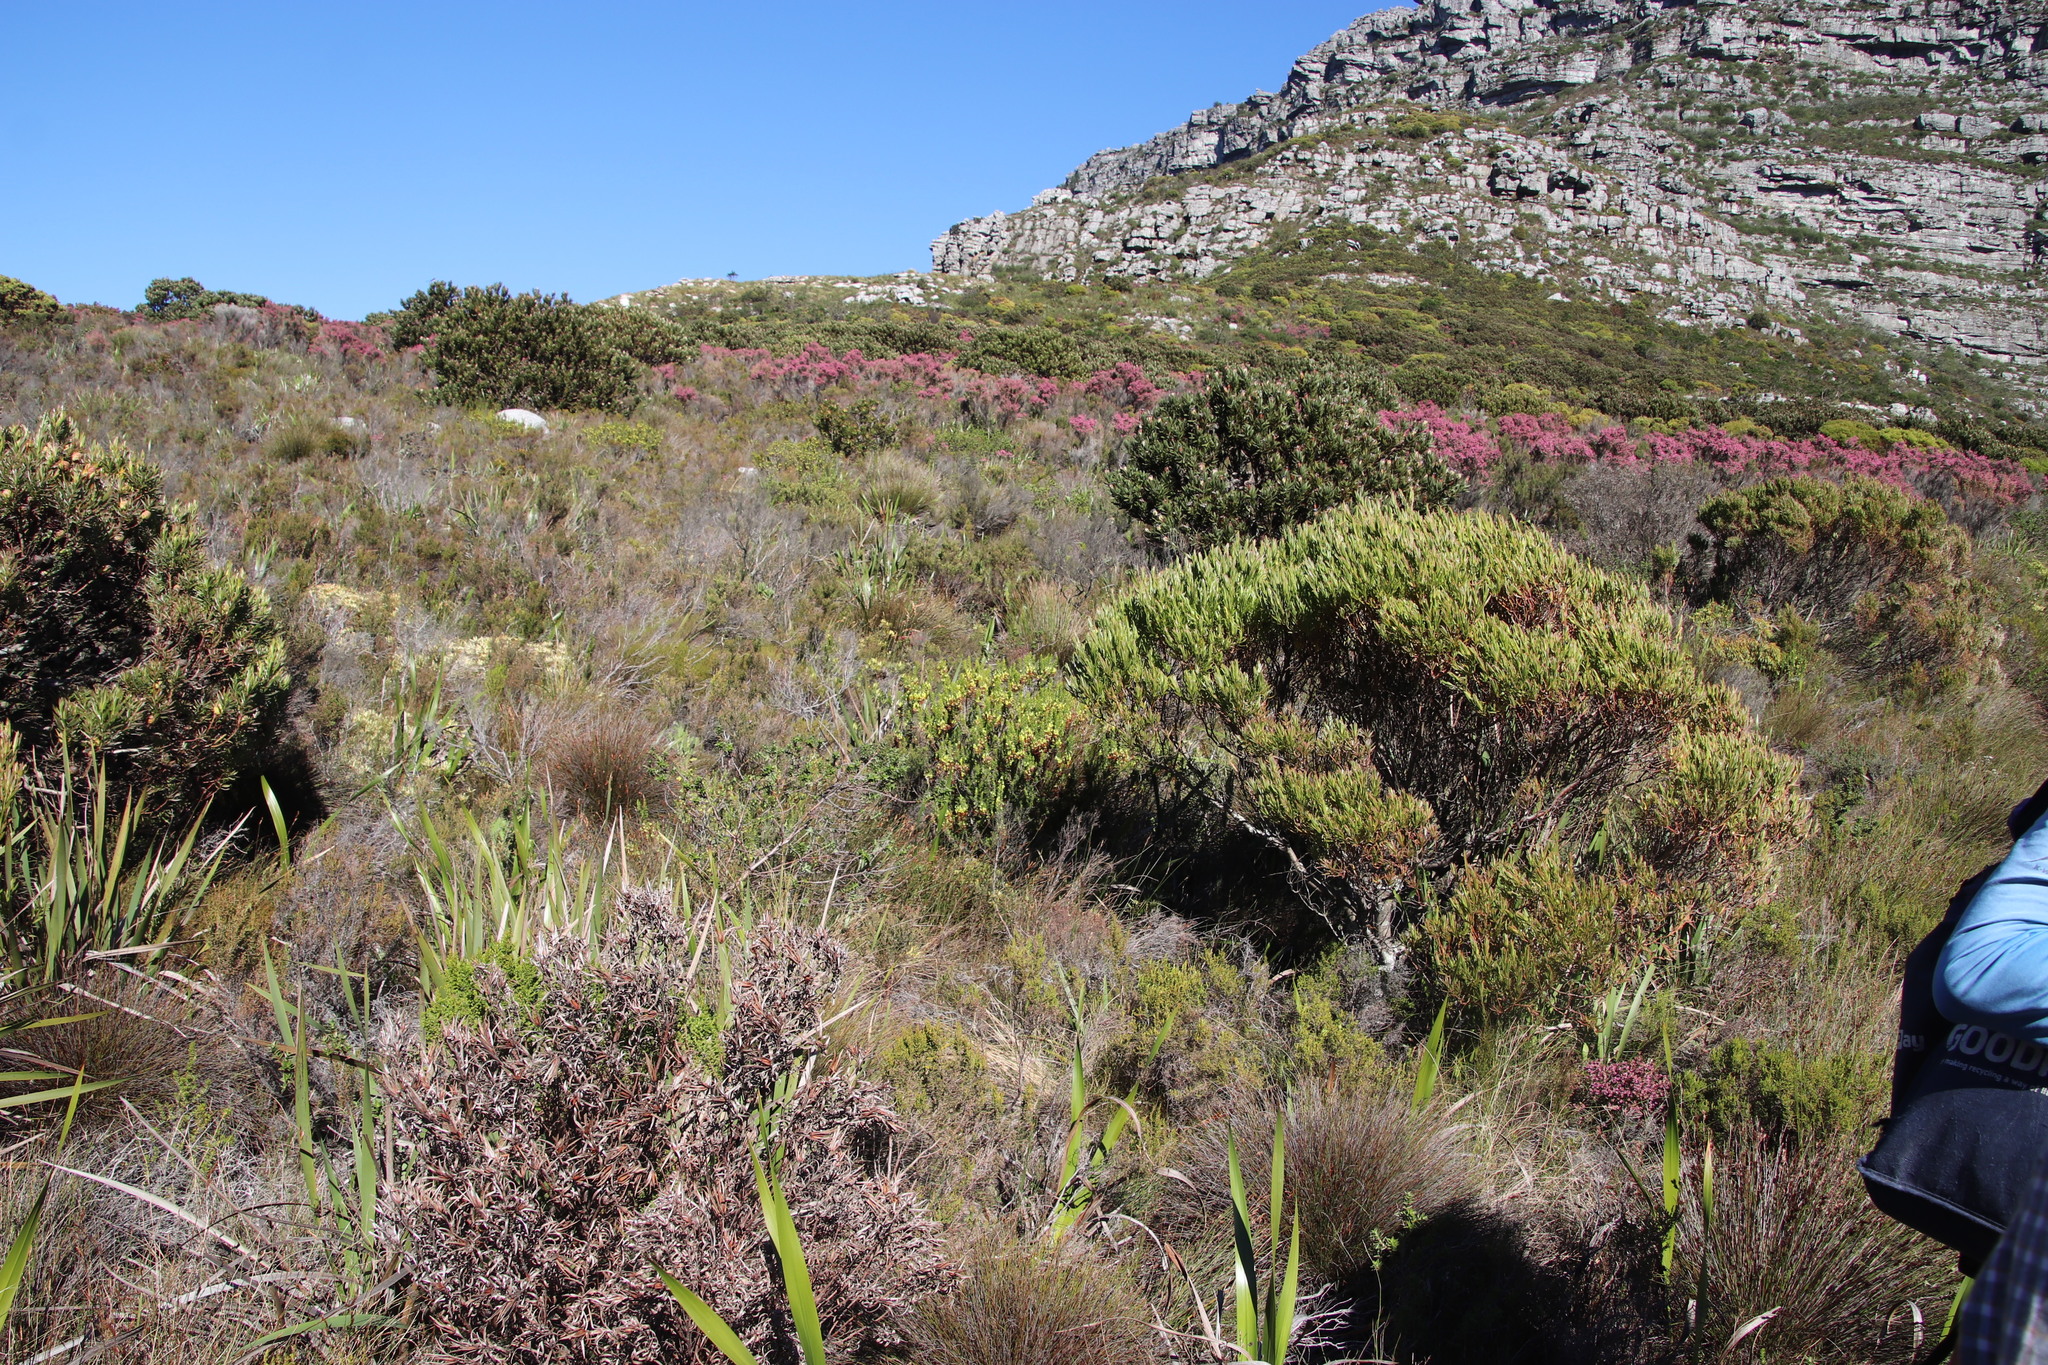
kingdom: Plantae
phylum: Tracheophyta
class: Magnoliopsida
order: Ericales
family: Ericaceae
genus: Erica
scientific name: Erica coccinea
